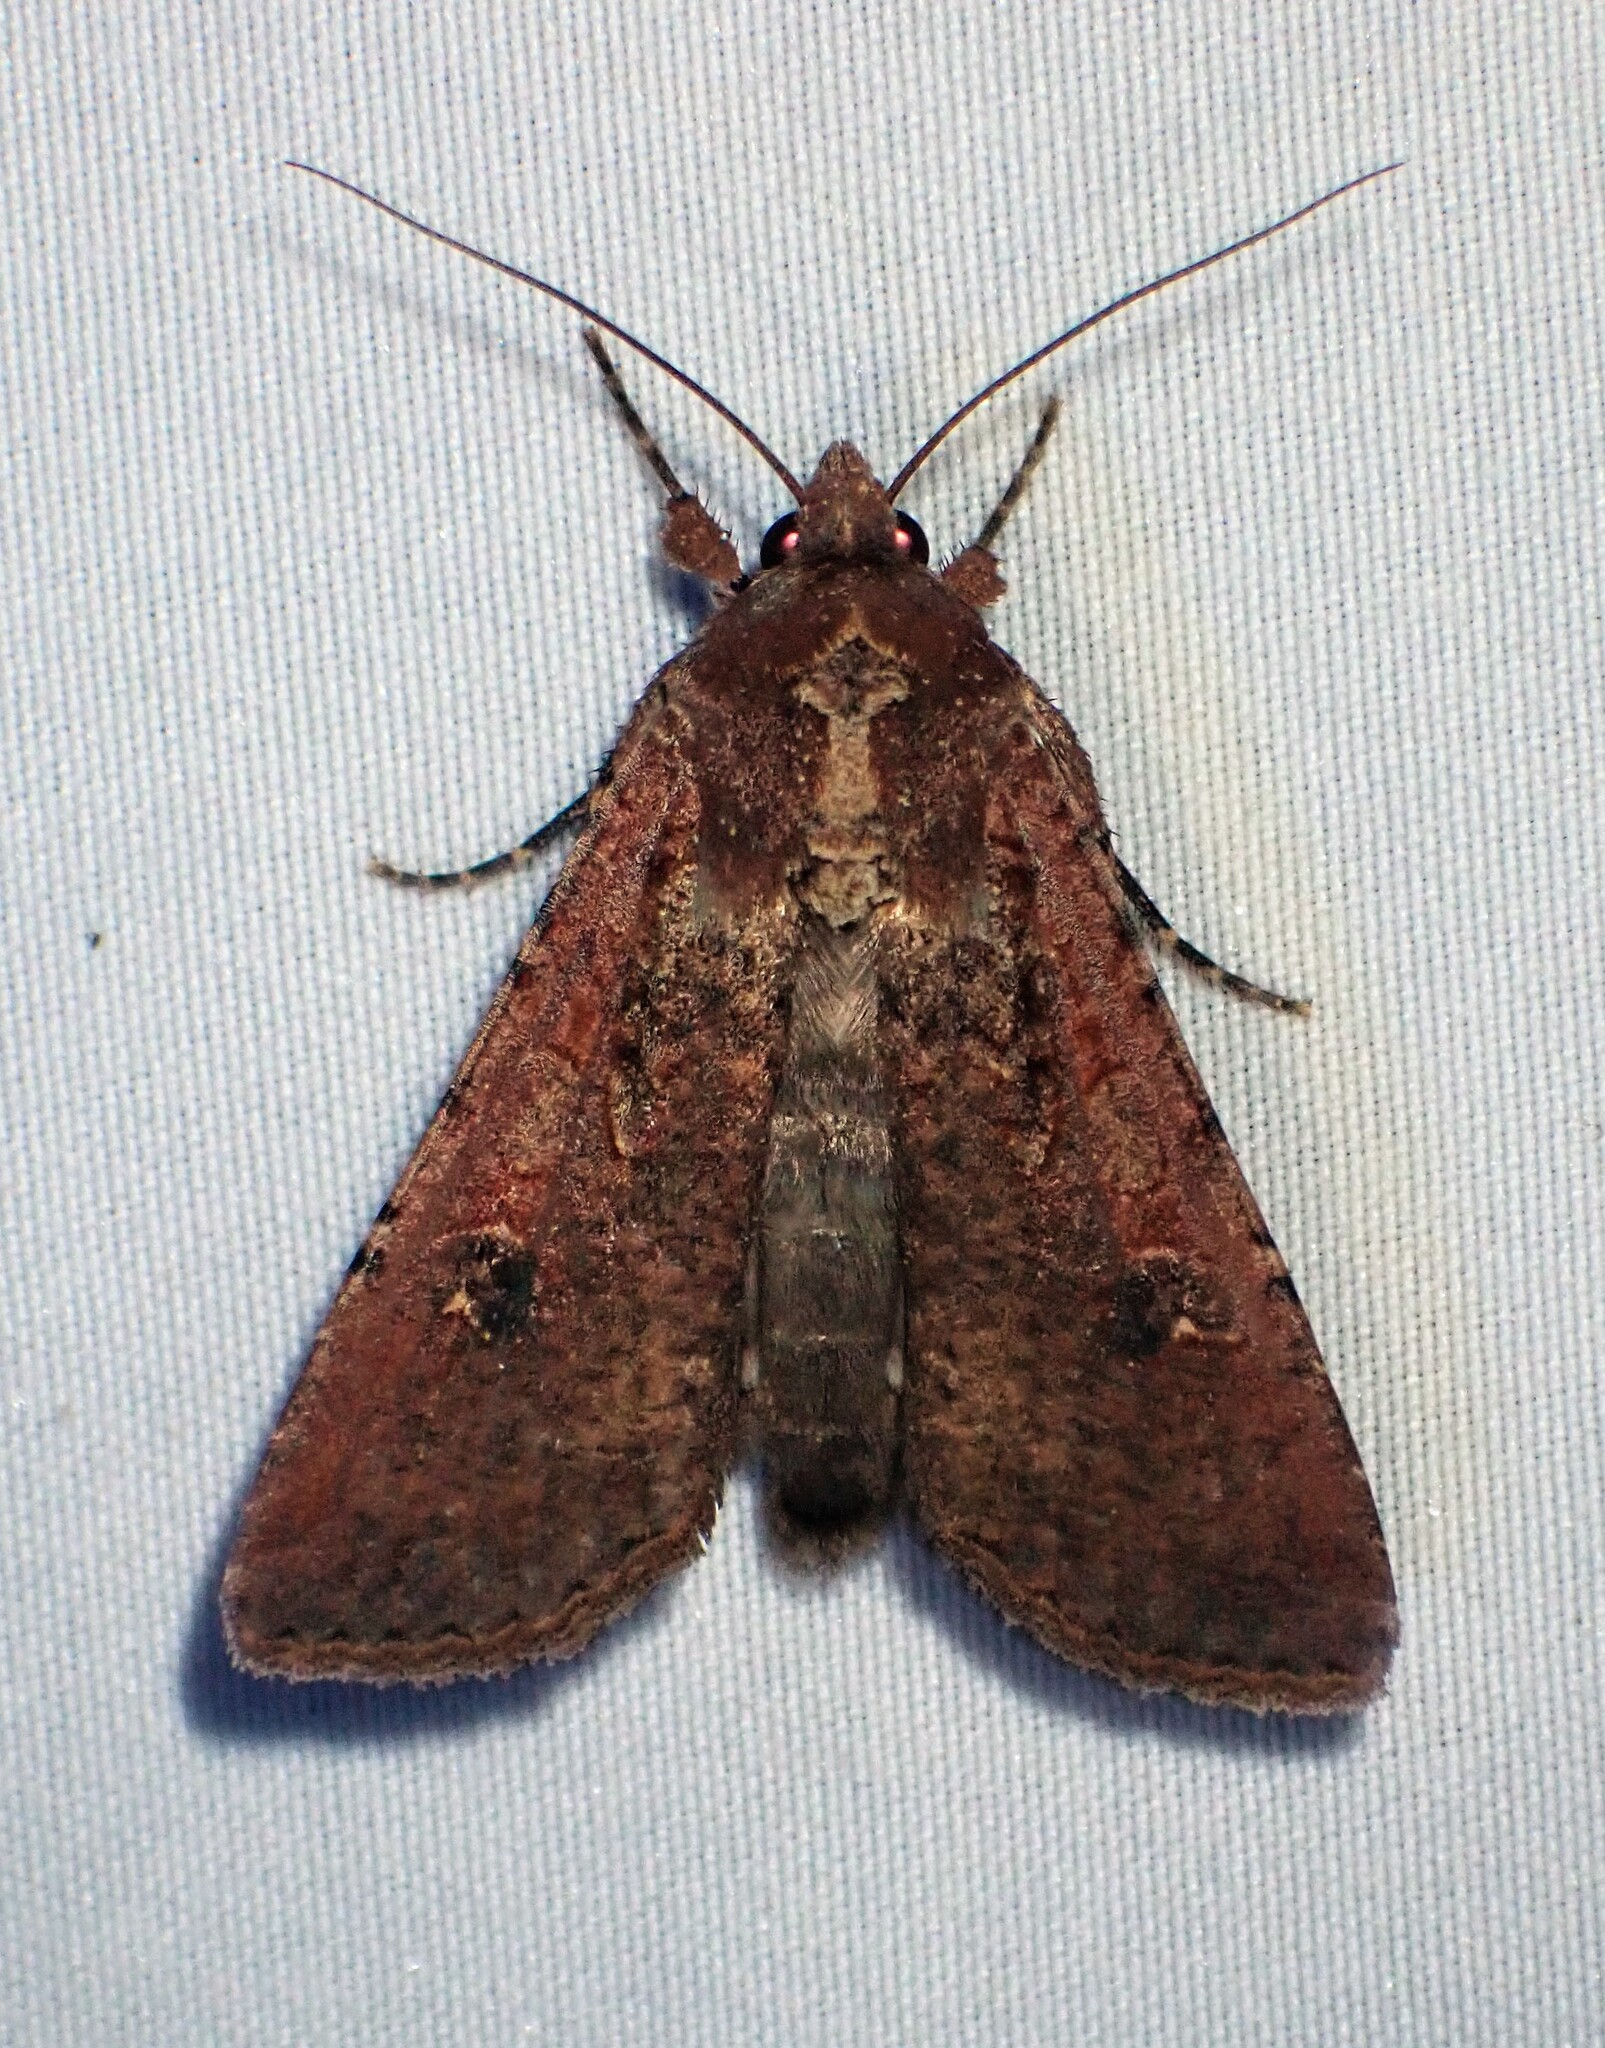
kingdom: Animalia
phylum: Arthropoda
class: Insecta
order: Lepidoptera
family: Noctuidae
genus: Peridroma
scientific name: Peridroma saucia
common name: Pearly underwing
